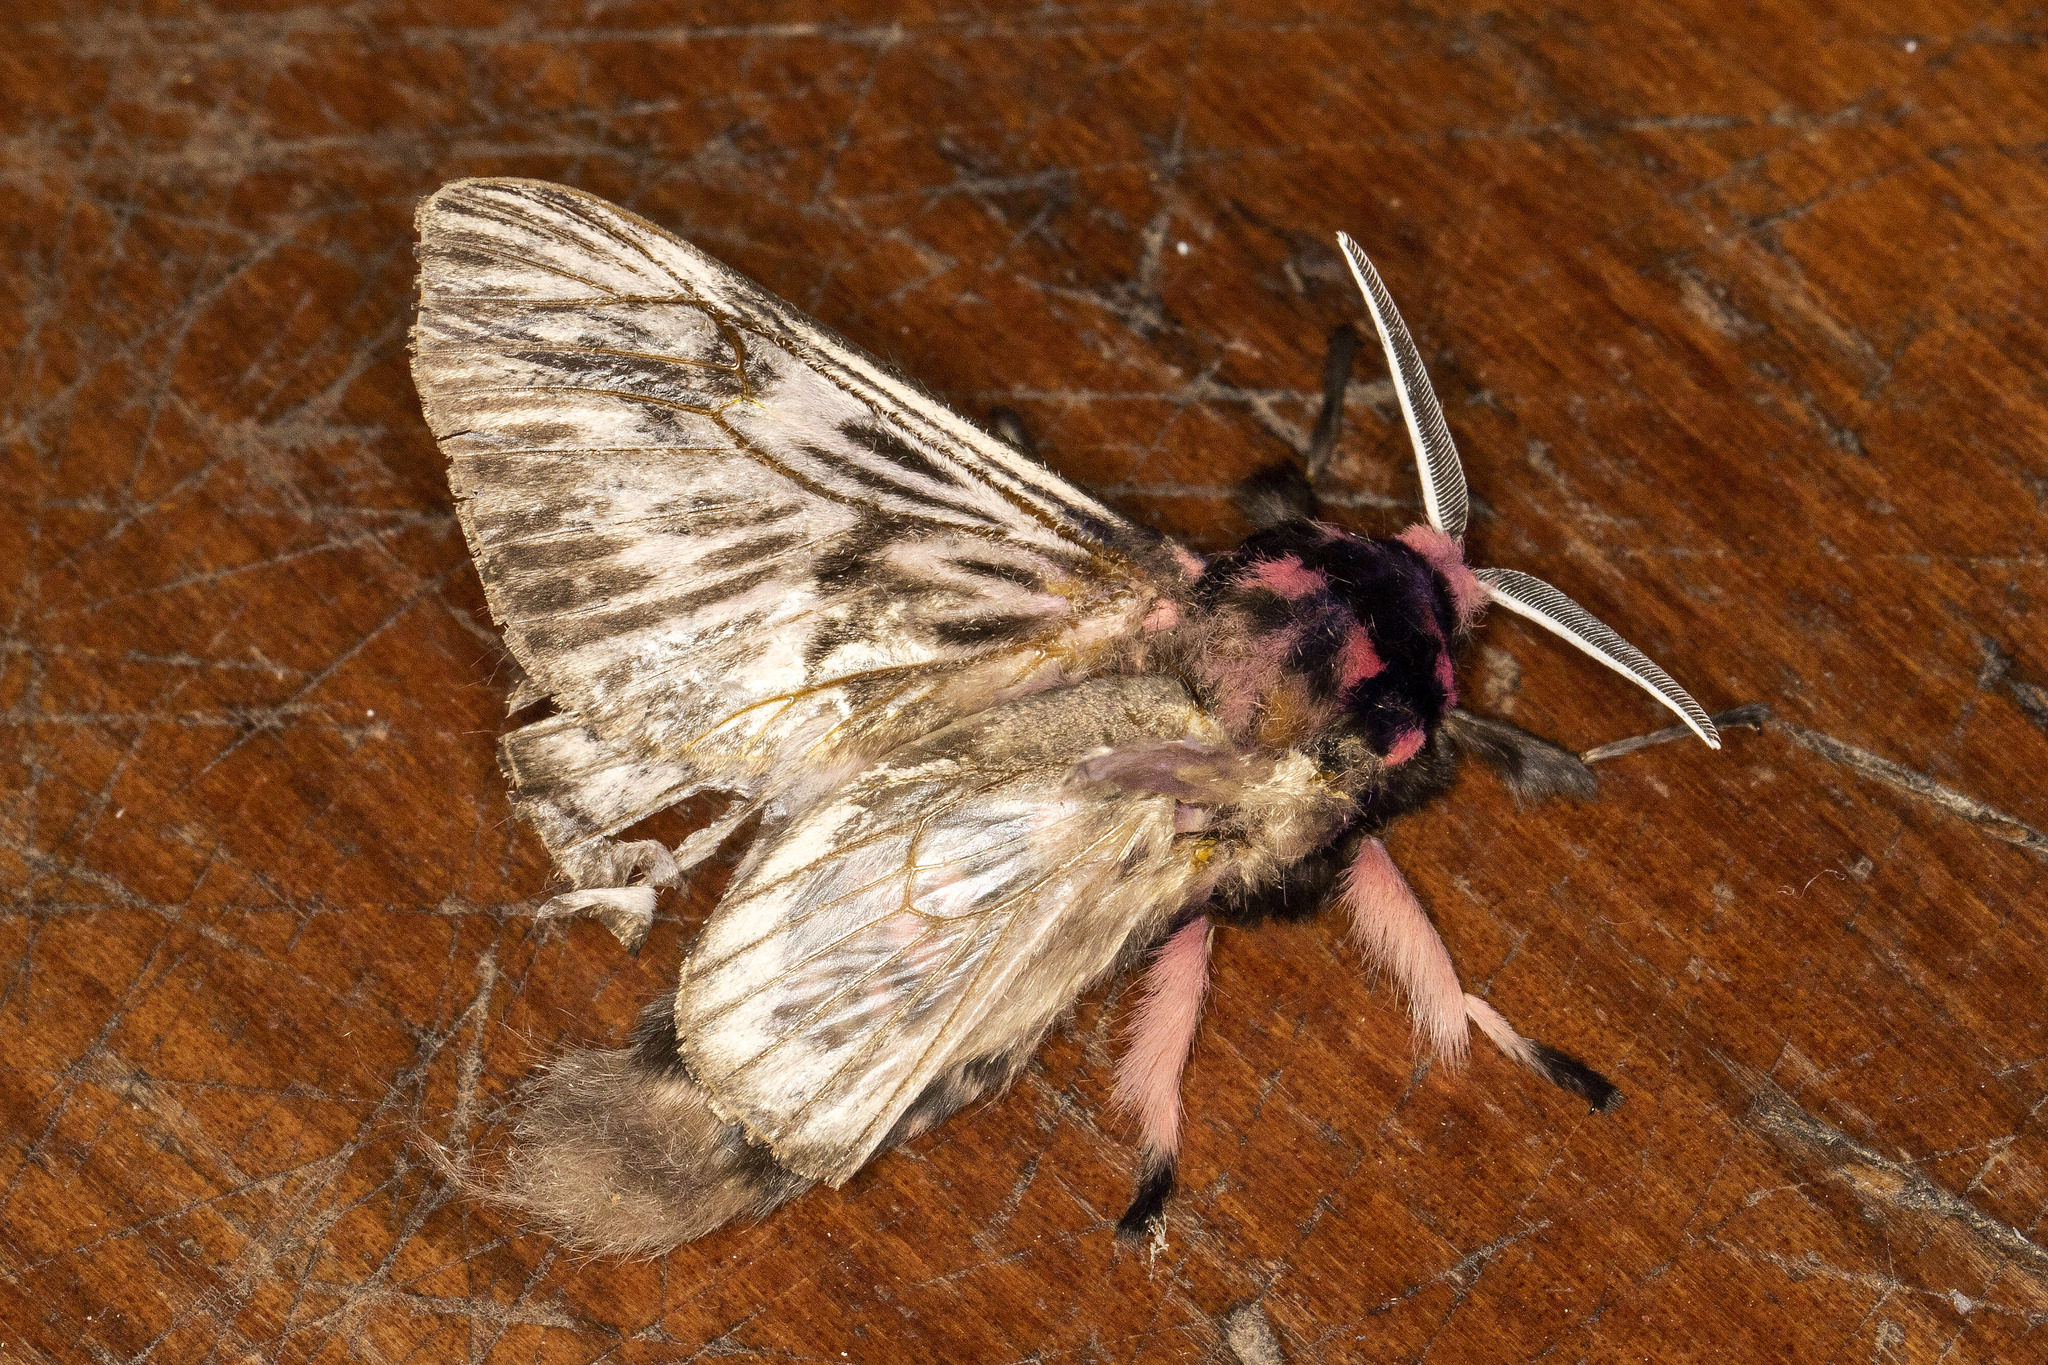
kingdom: Animalia
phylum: Arthropoda
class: Insecta
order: Lepidoptera
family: Megalopygidae
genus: Megalopyge
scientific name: Megalopyge lanata
